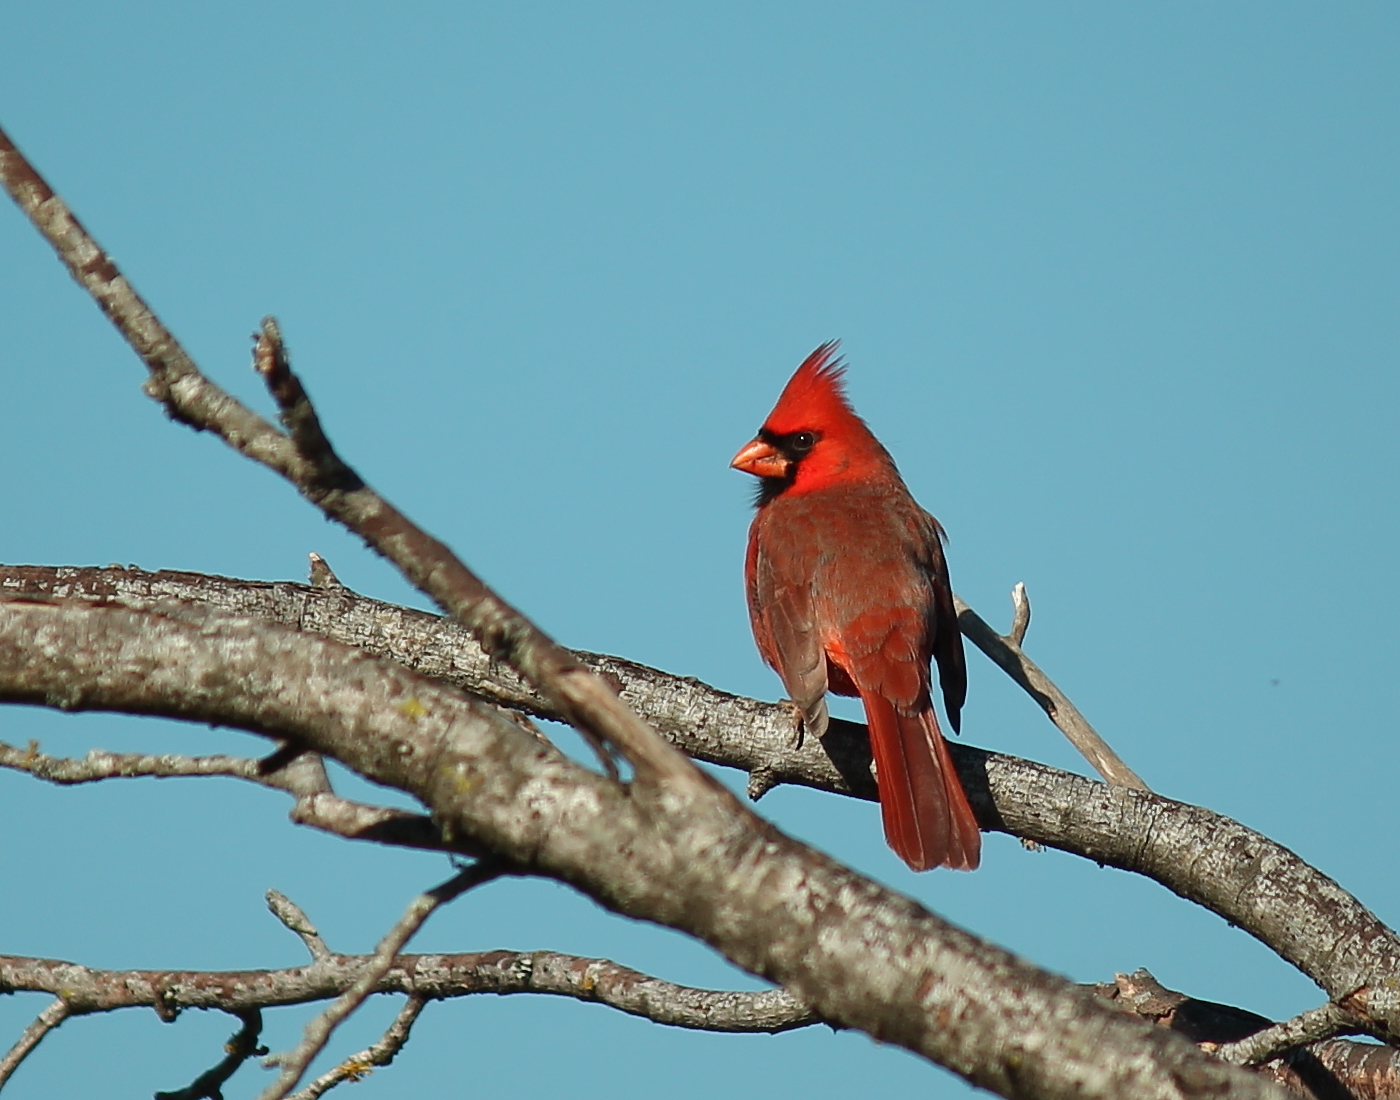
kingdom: Animalia
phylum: Chordata
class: Aves
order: Passeriformes
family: Cardinalidae
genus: Cardinalis
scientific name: Cardinalis cardinalis
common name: Northern cardinal
